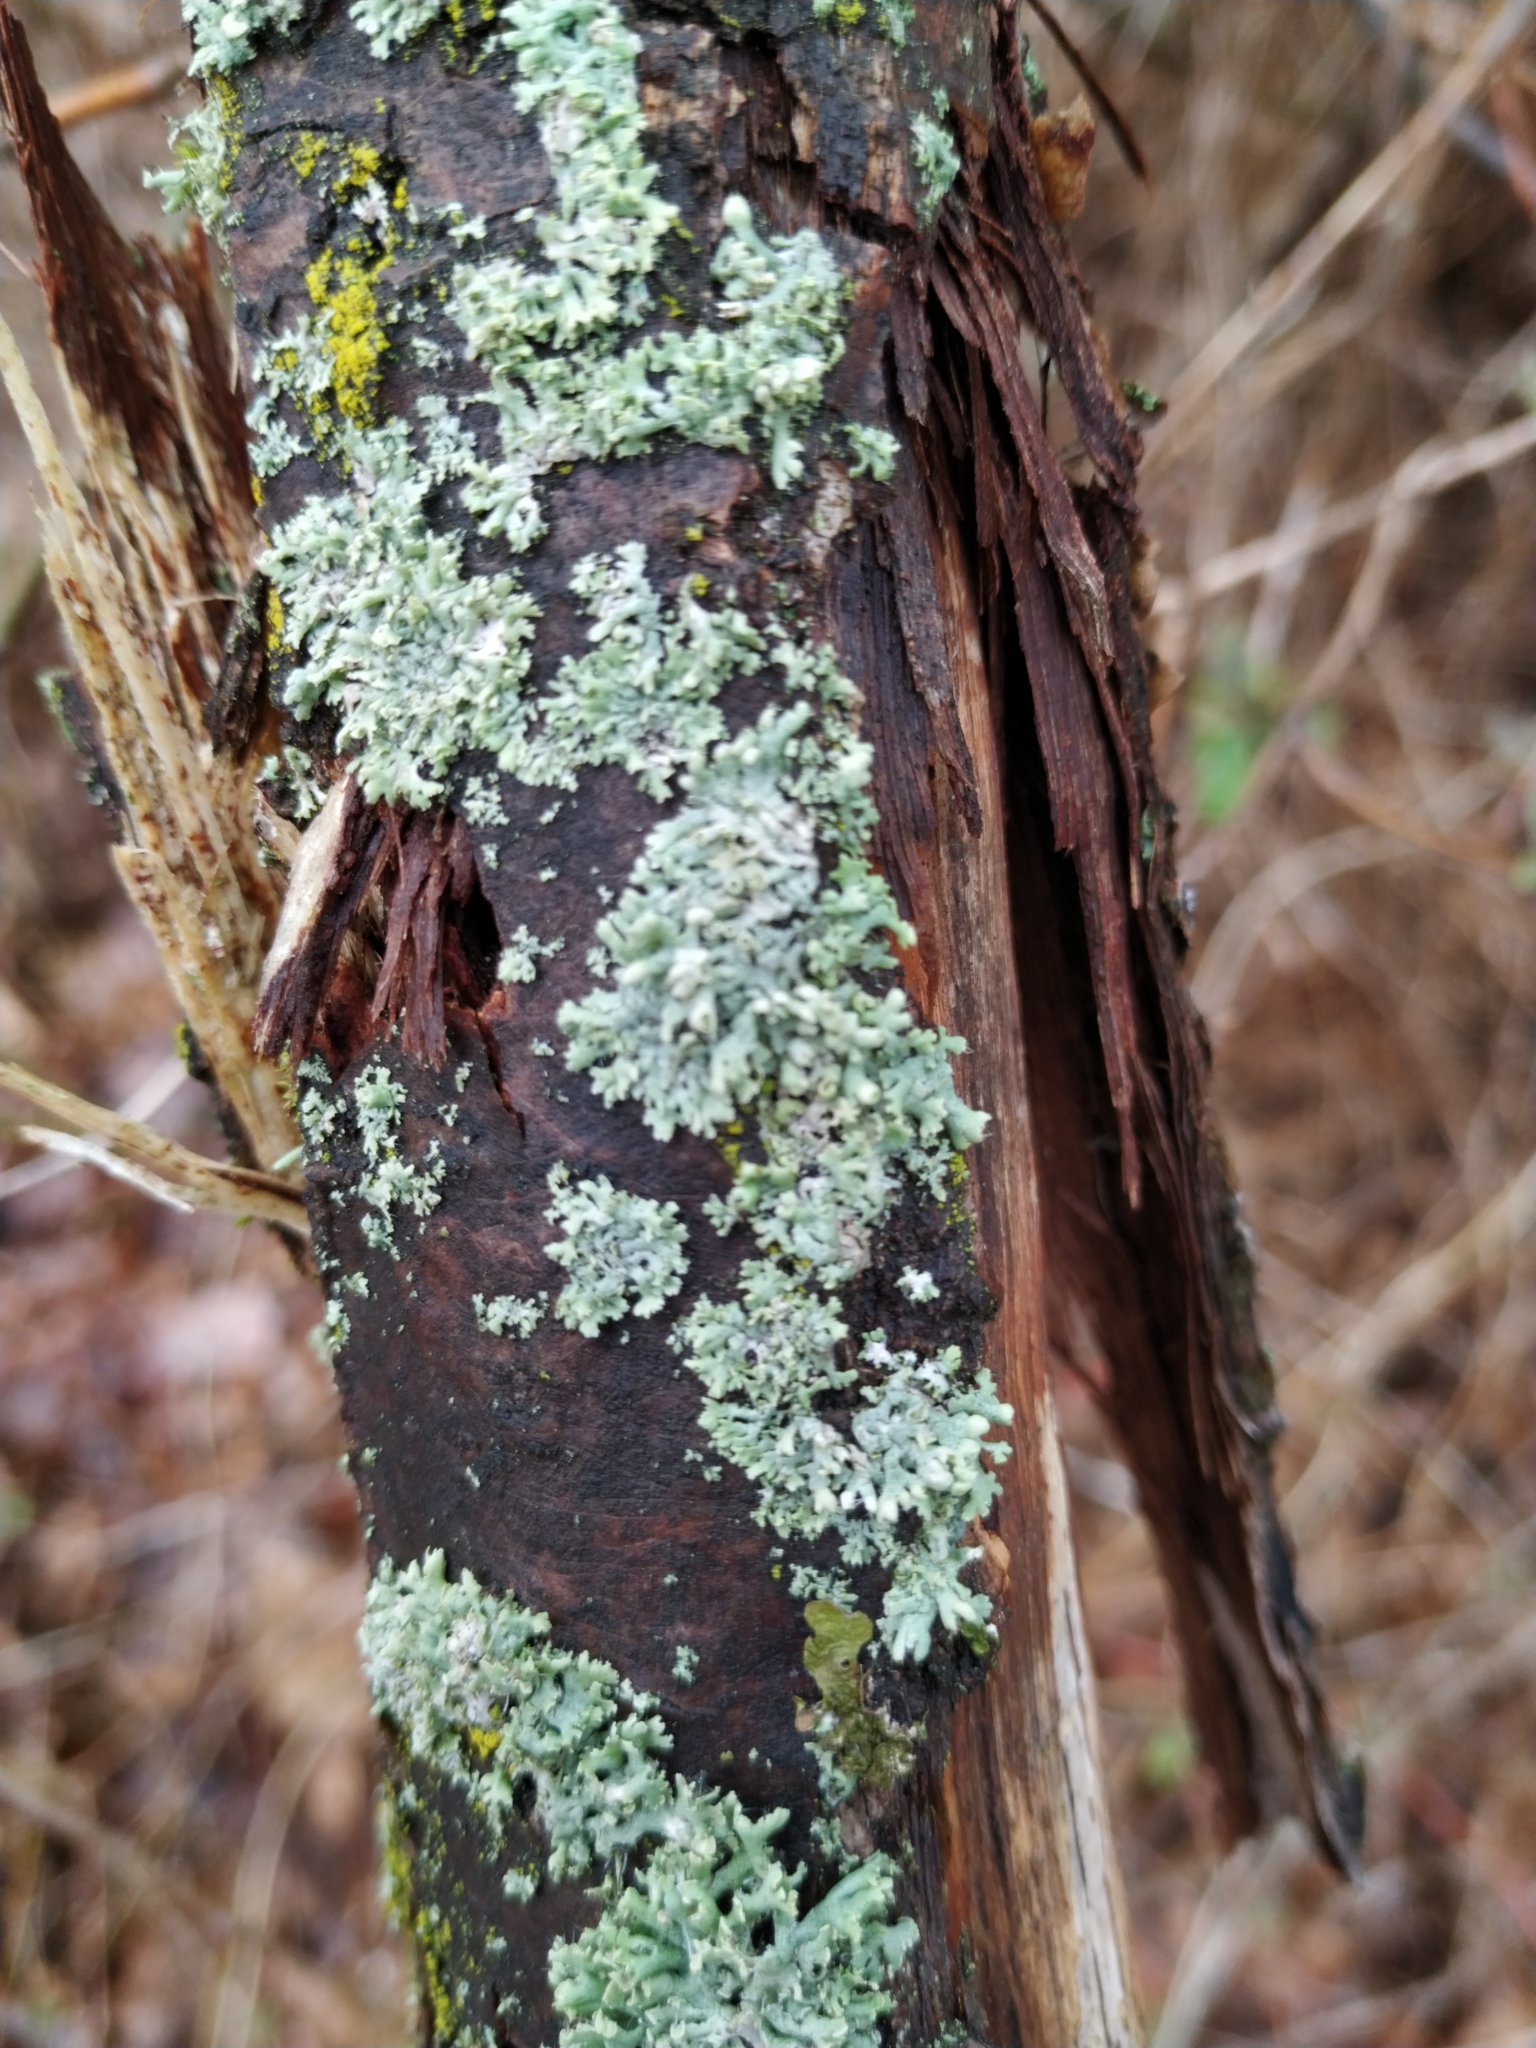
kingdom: Fungi
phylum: Ascomycota
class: Lecanoromycetes
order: Caliciales
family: Physciaceae
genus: Physcia
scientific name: Physcia adscendens
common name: Hooded rosette lichen
